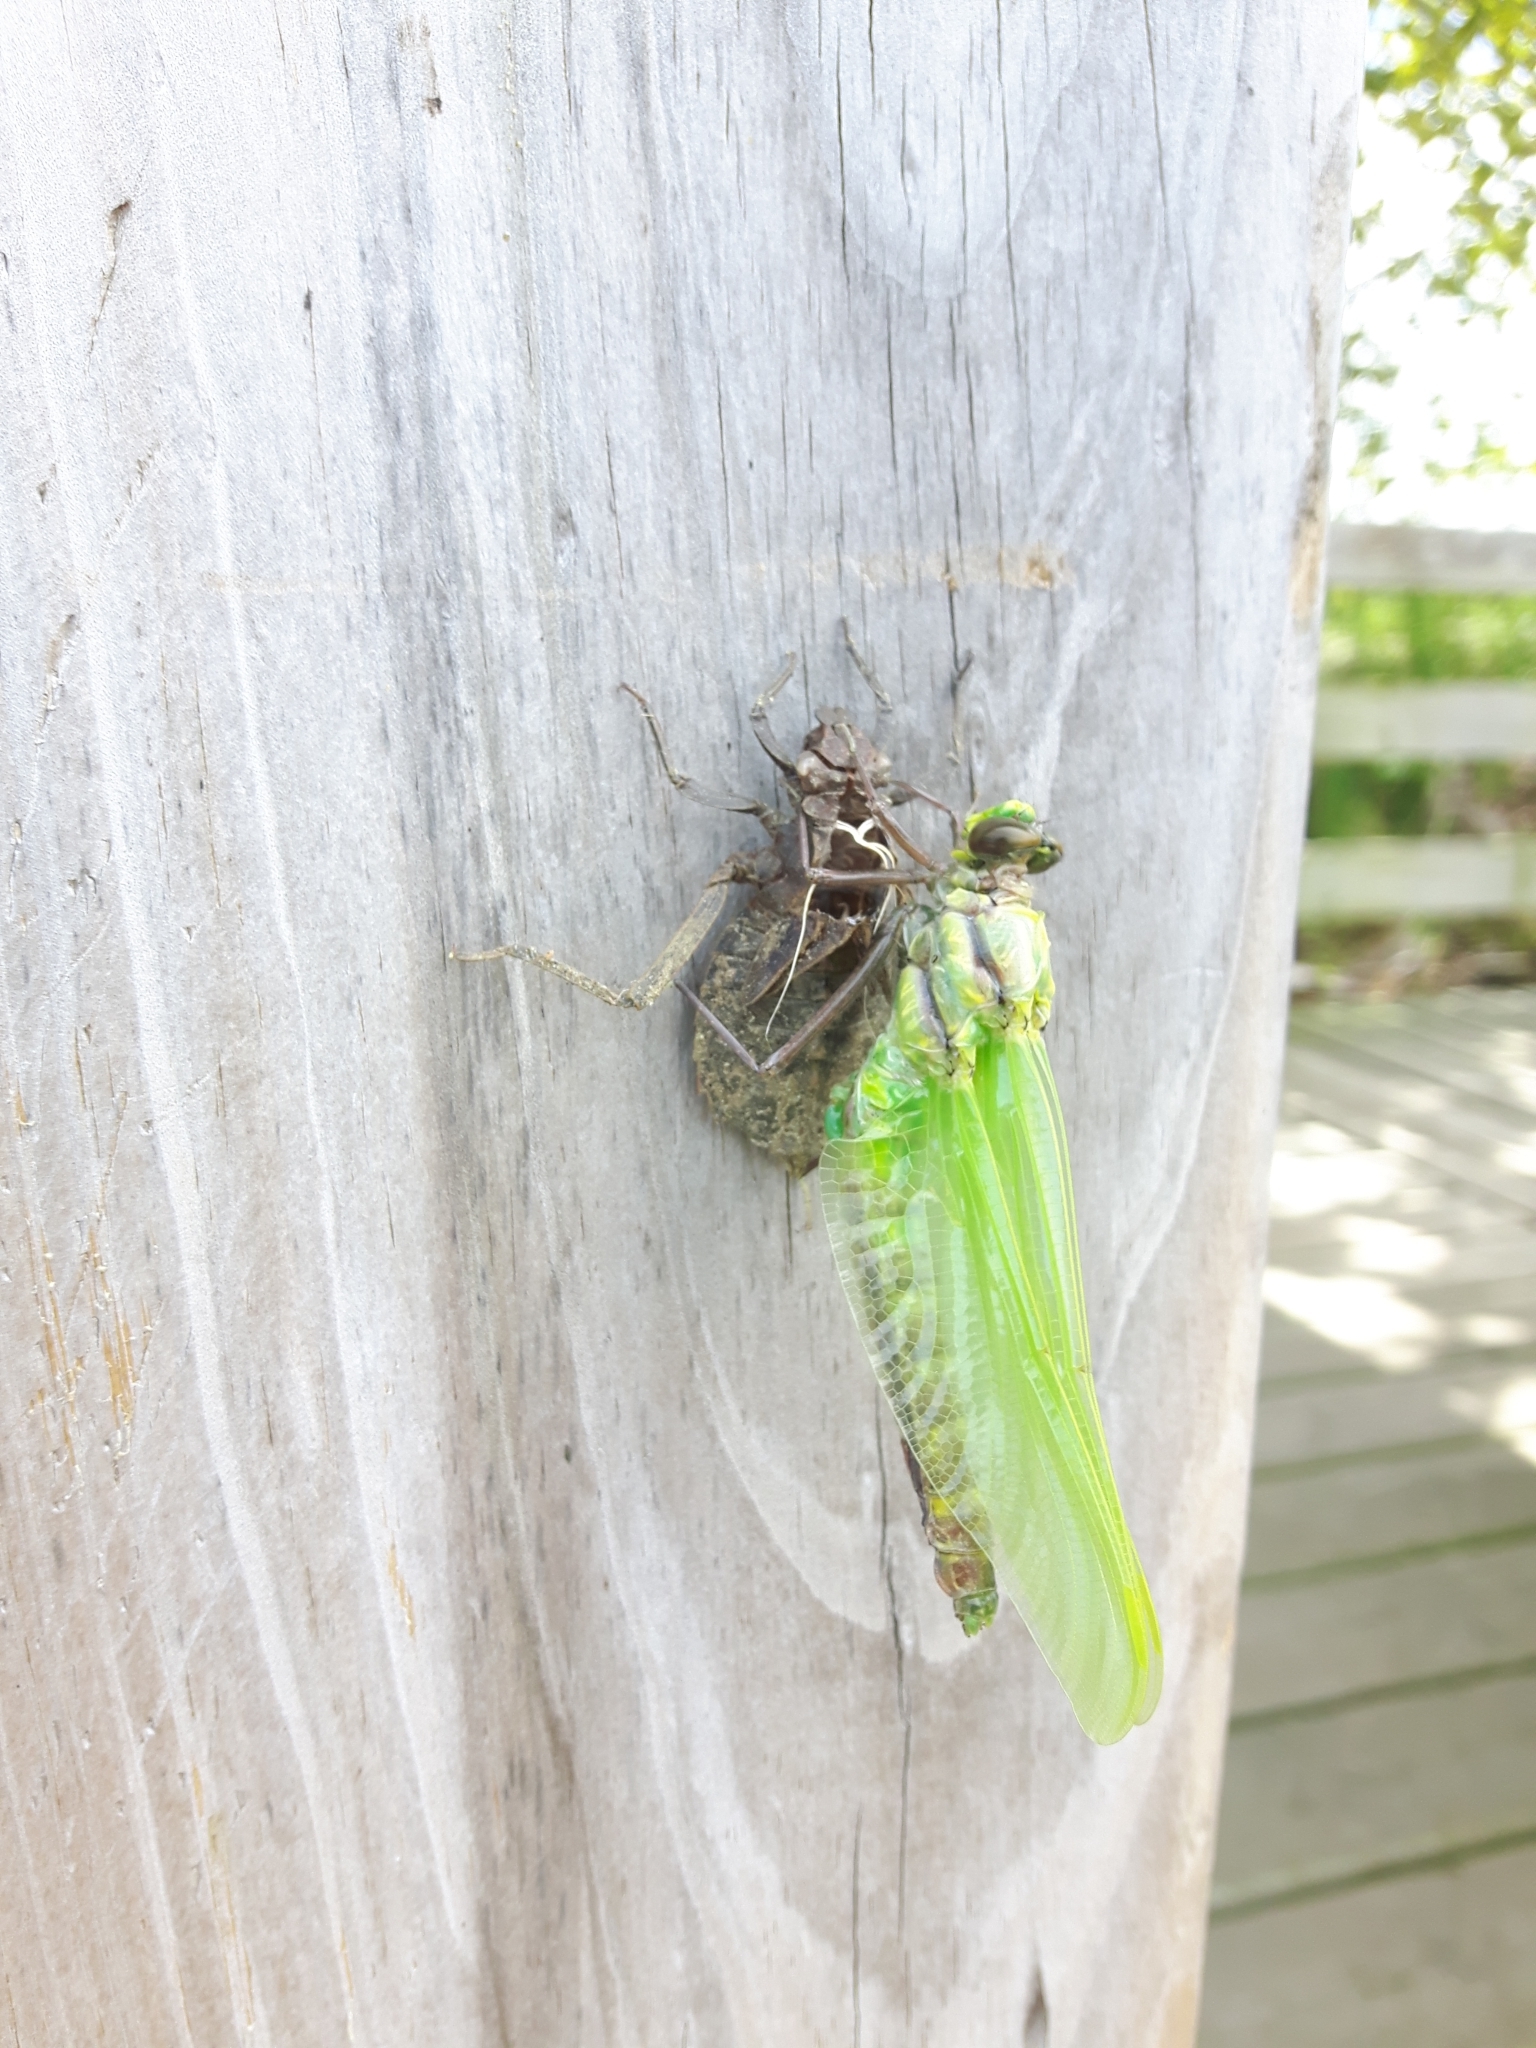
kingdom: Animalia
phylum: Arthropoda
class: Insecta
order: Odonata
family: Gomphidae
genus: Hagenius
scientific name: Hagenius brevistylus
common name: Dragonhunter
